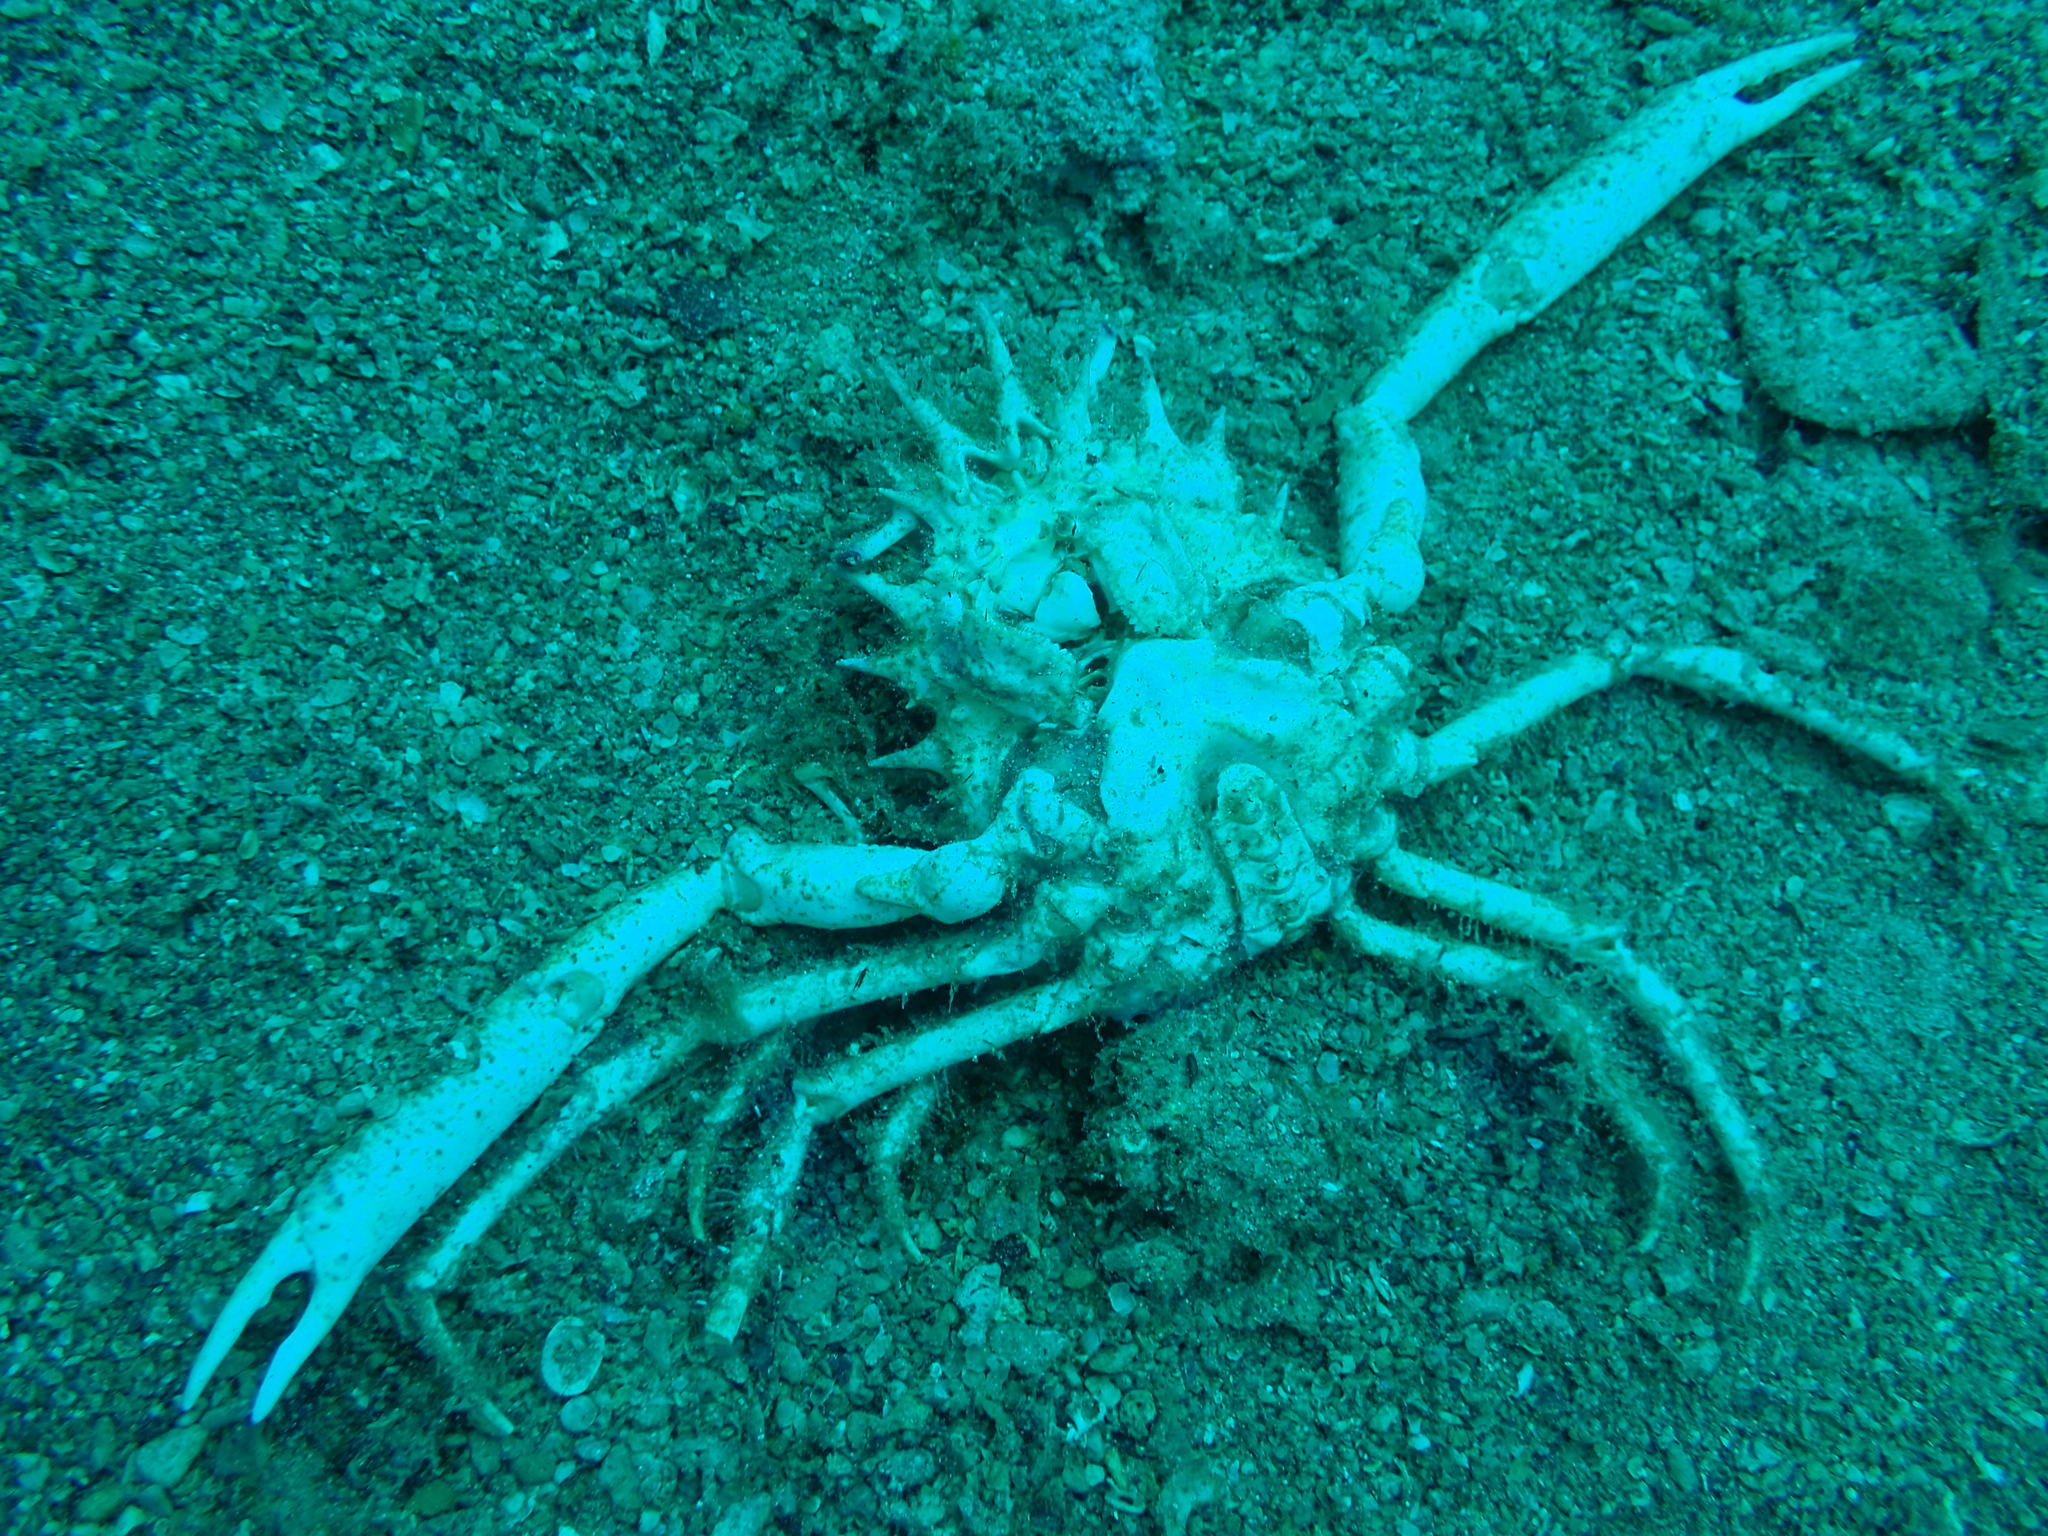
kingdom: Animalia
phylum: Arthropoda
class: Malacostraca
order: Decapoda
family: Majidae
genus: Maja
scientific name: Maja crispata
